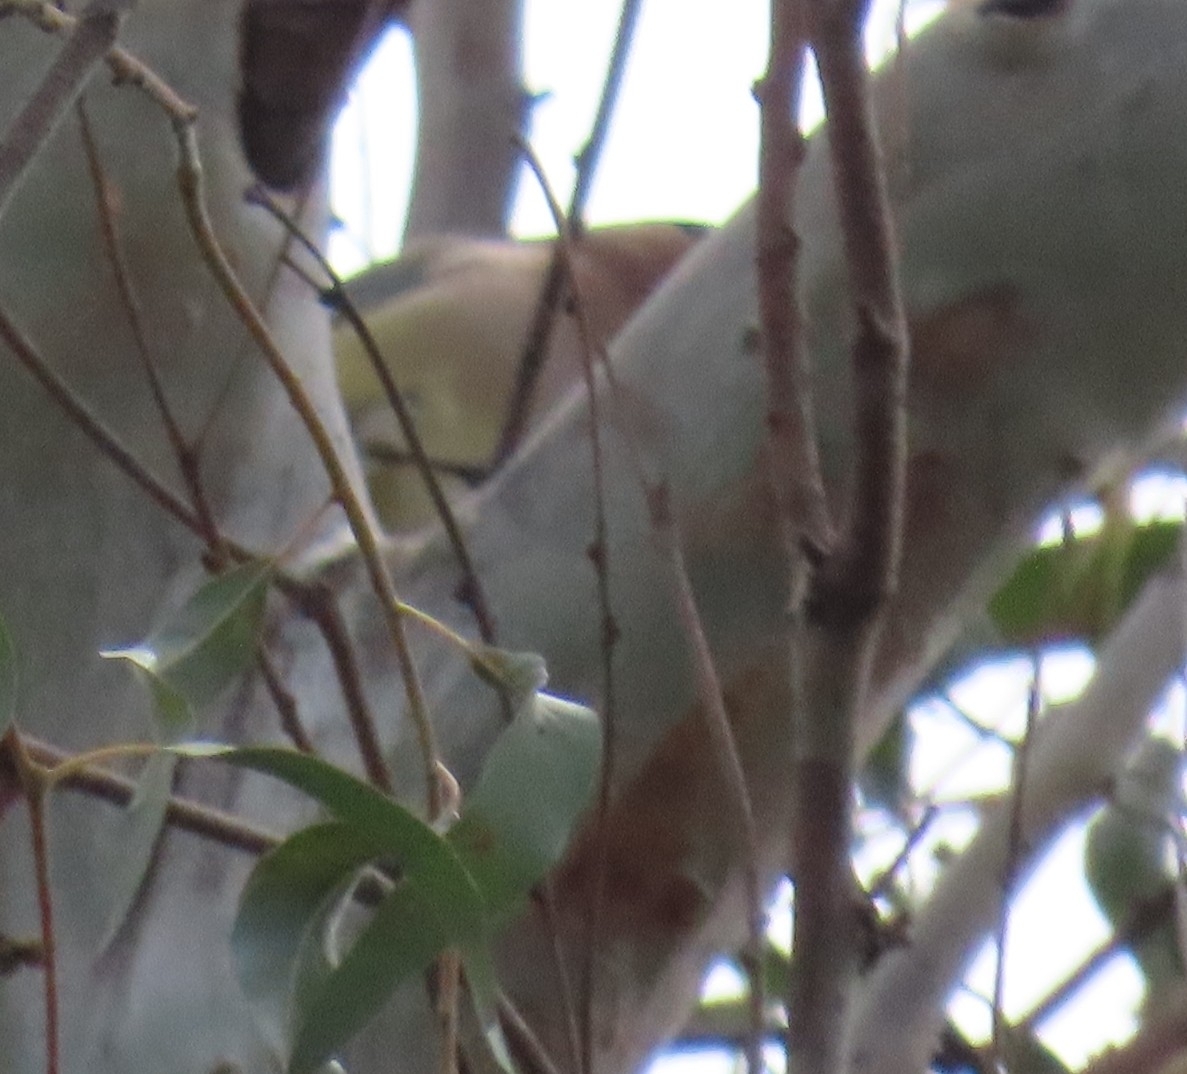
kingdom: Animalia
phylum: Chordata
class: Aves
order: Passeriformes
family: Bombycillidae
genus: Bombycilla
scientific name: Bombycilla cedrorum
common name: Cedar waxwing
